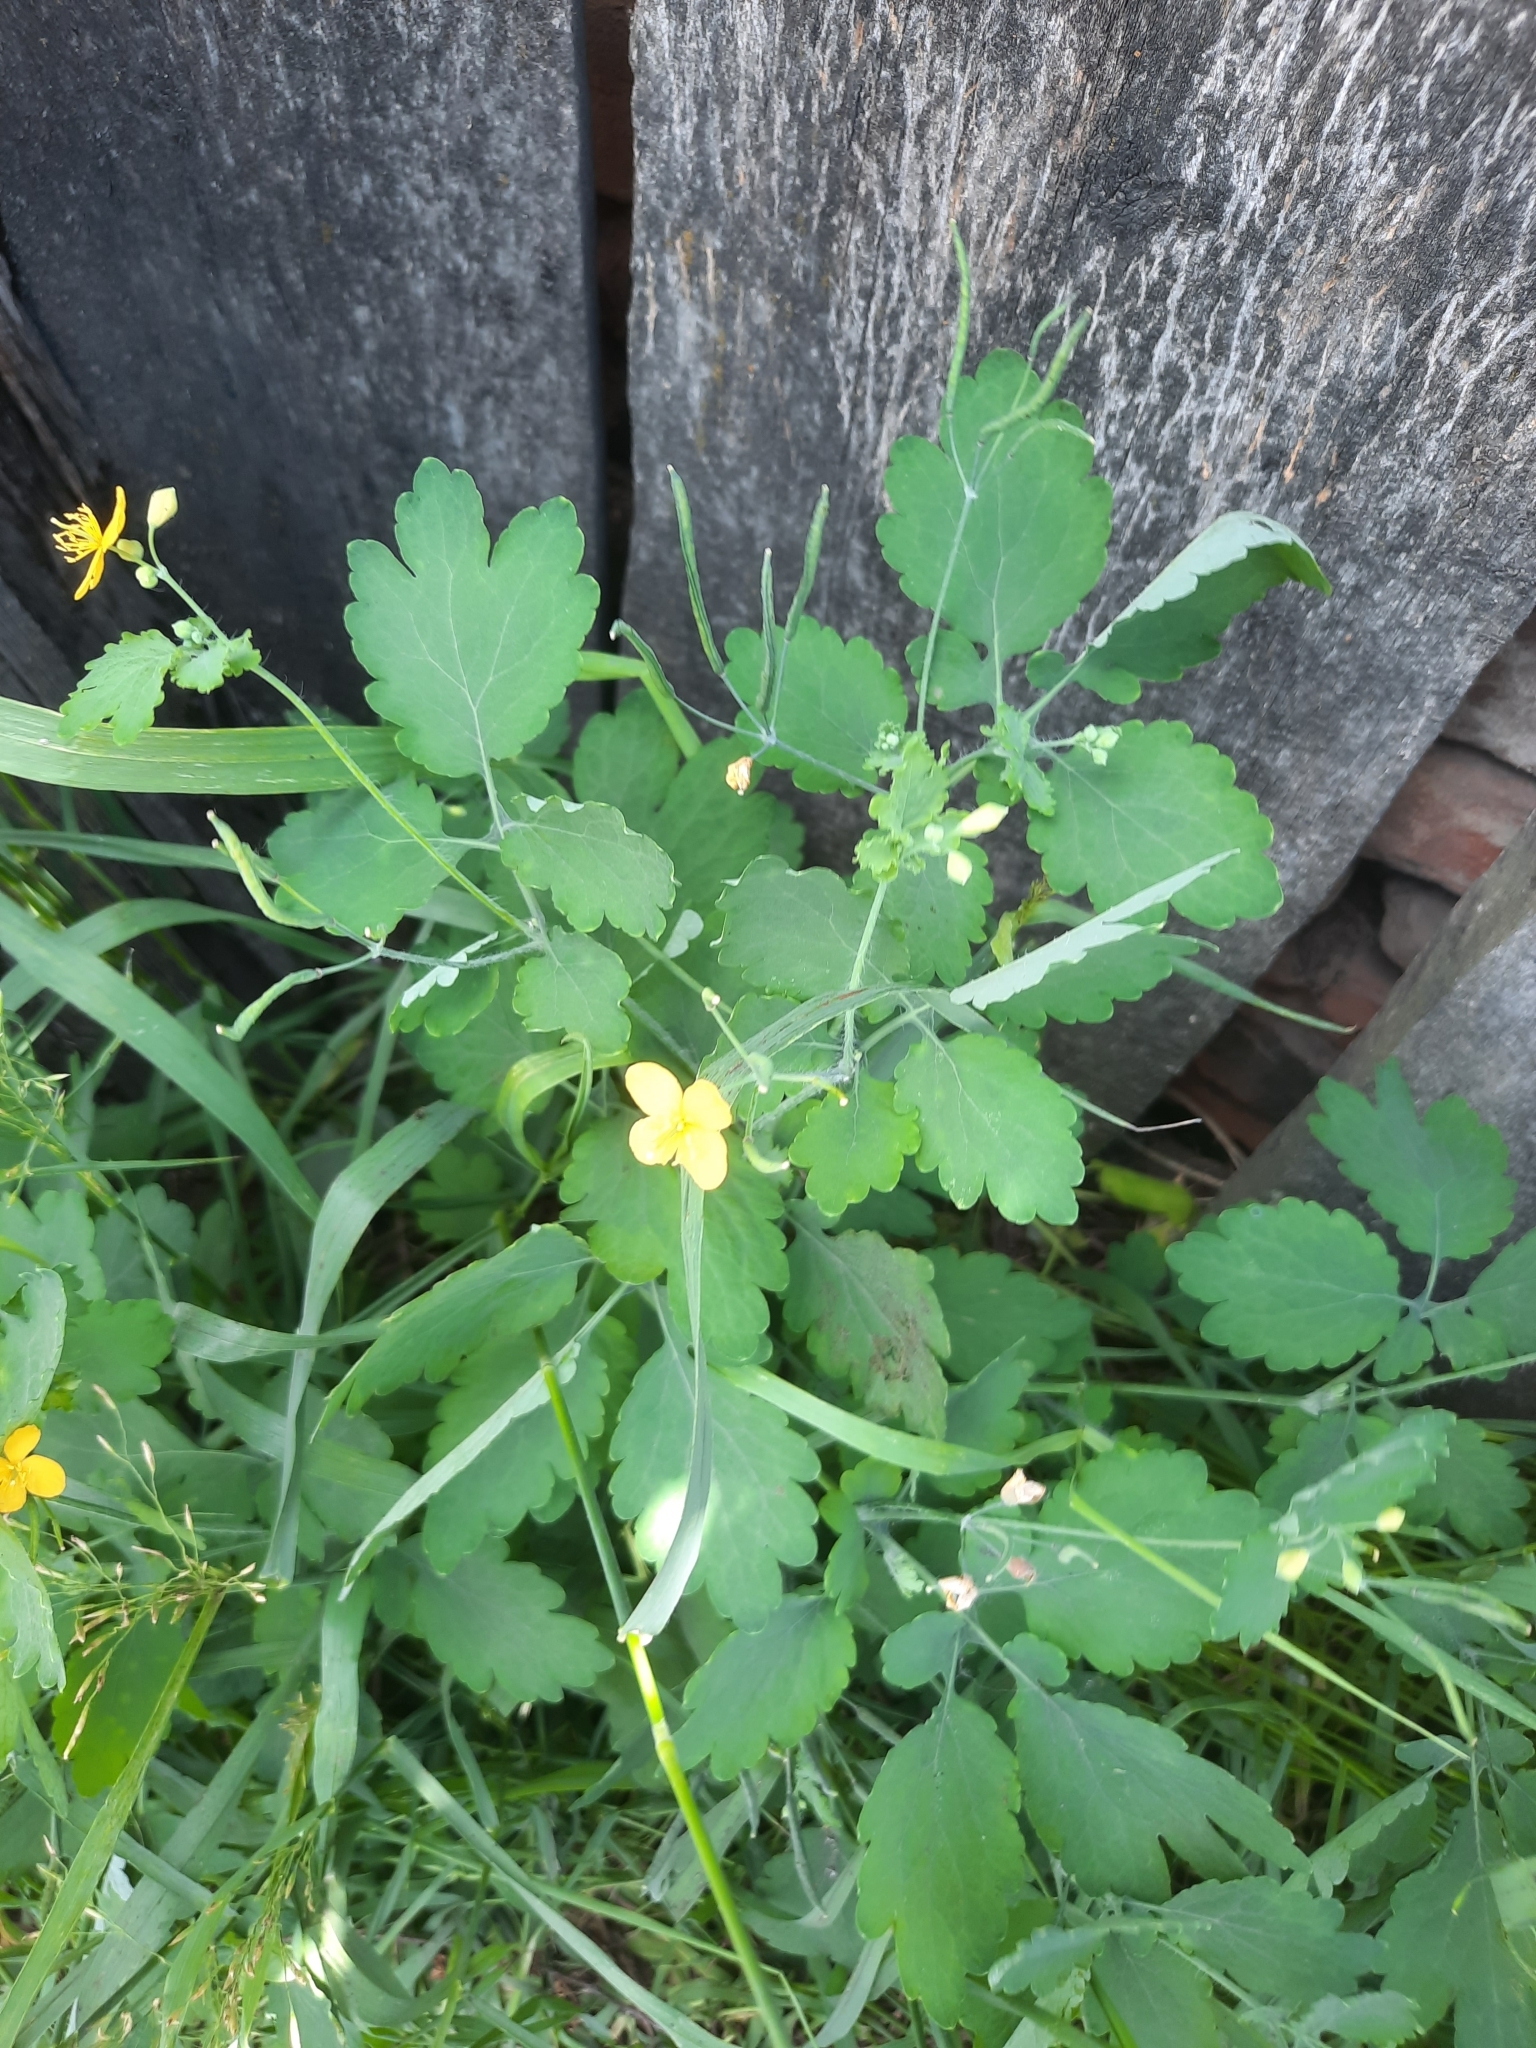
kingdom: Plantae
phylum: Tracheophyta
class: Magnoliopsida
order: Ranunculales
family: Papaveraceae
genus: Chelidonium
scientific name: Chelidonium majus
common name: Greater celandine
